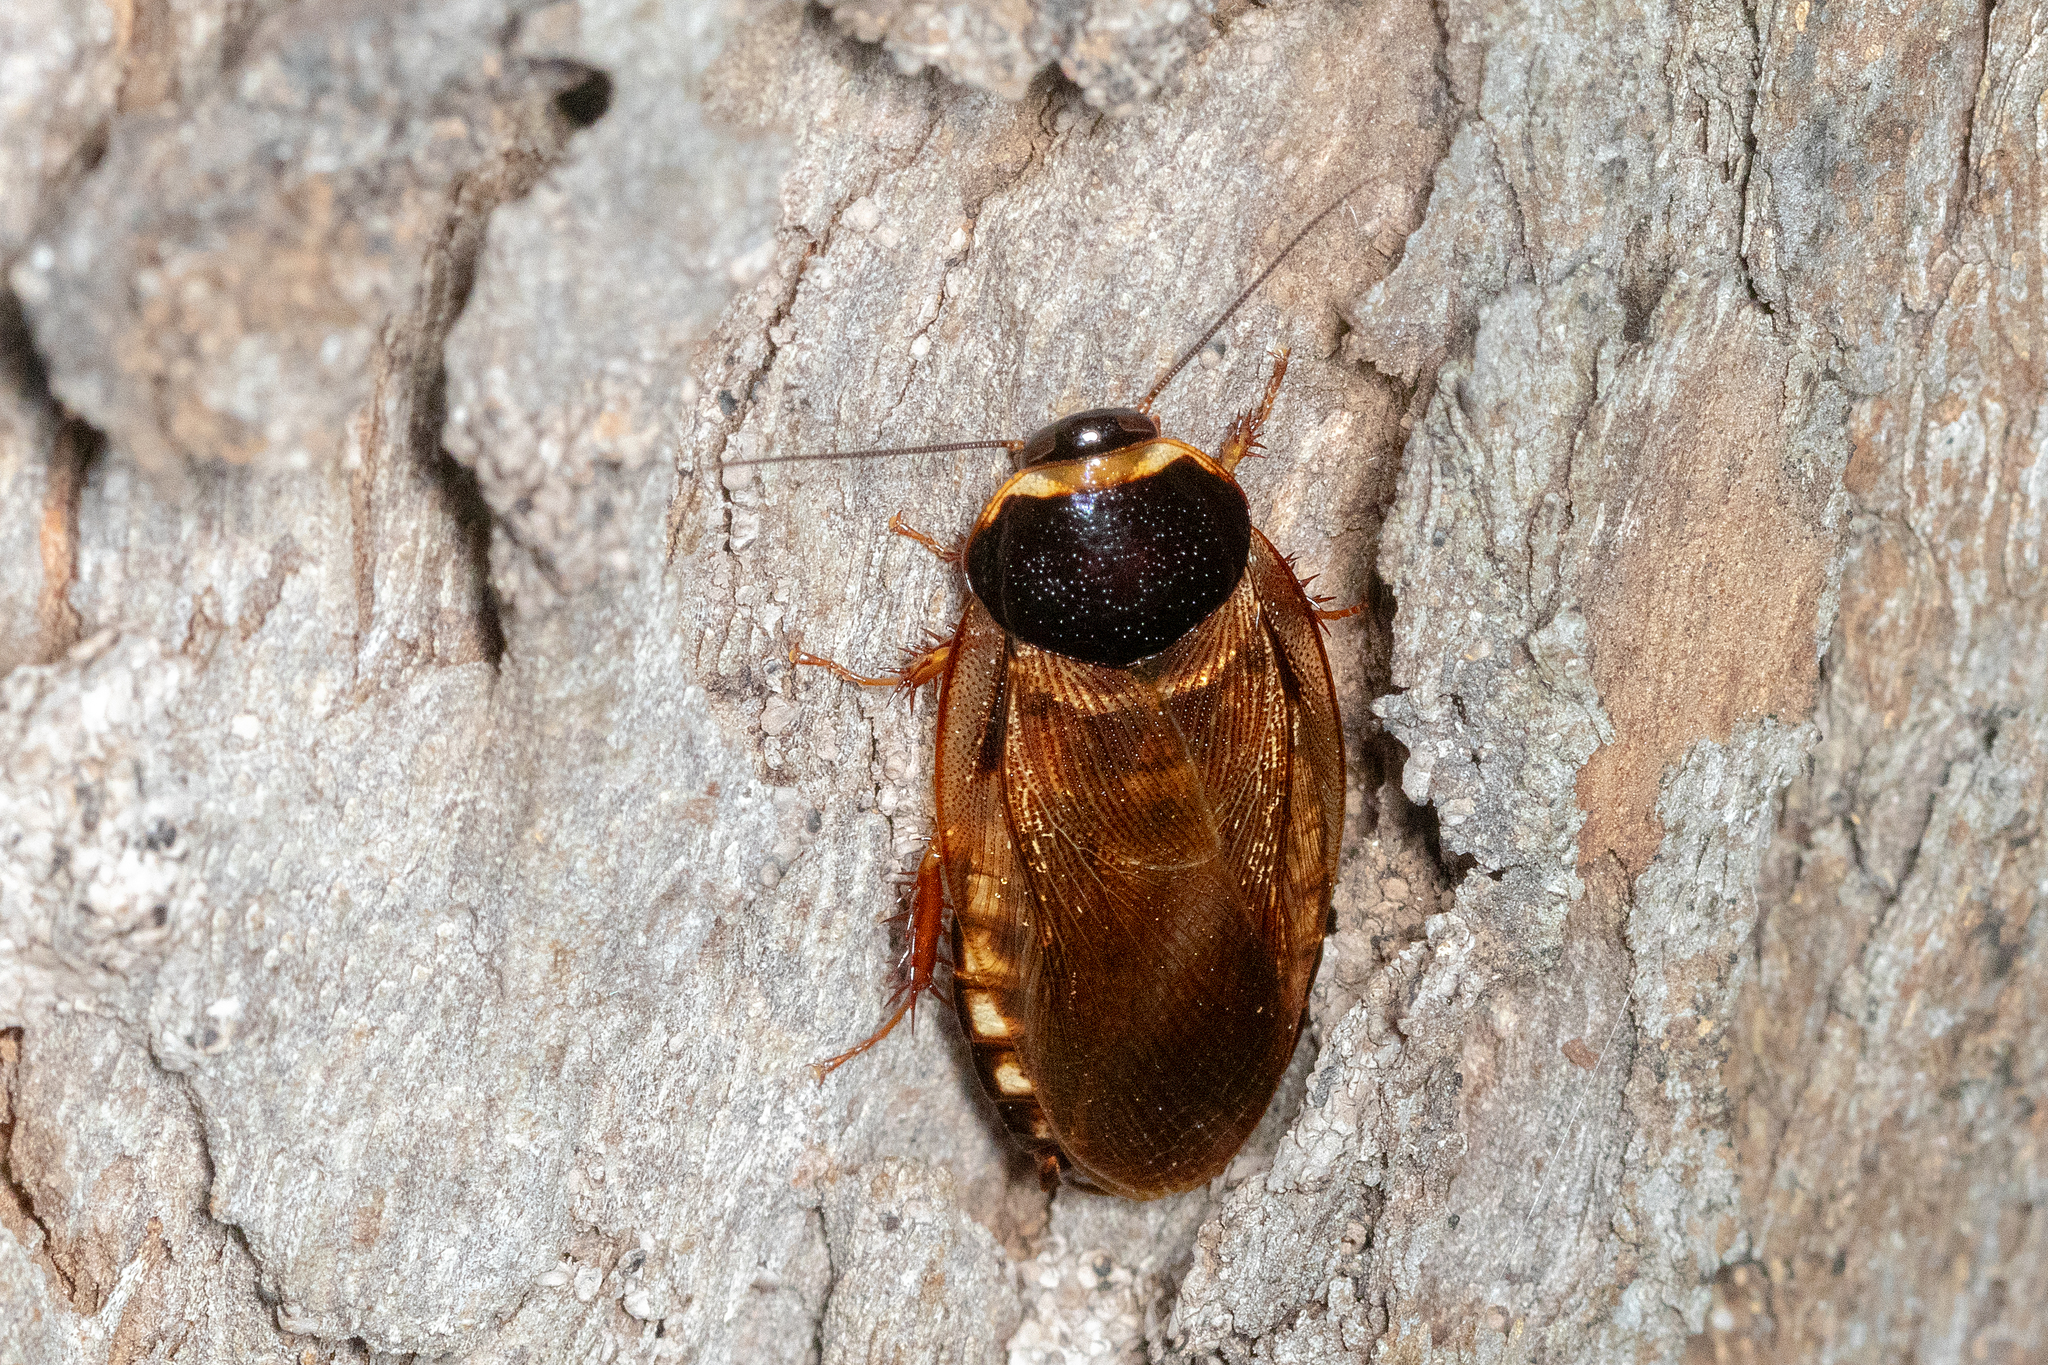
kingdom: Animalia
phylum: Arthropoda
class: Insecta
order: Blattodea
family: Blaberidae
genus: Pycnoscelus
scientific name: Pycnoscelus surinamensis
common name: Surinam cockroach
